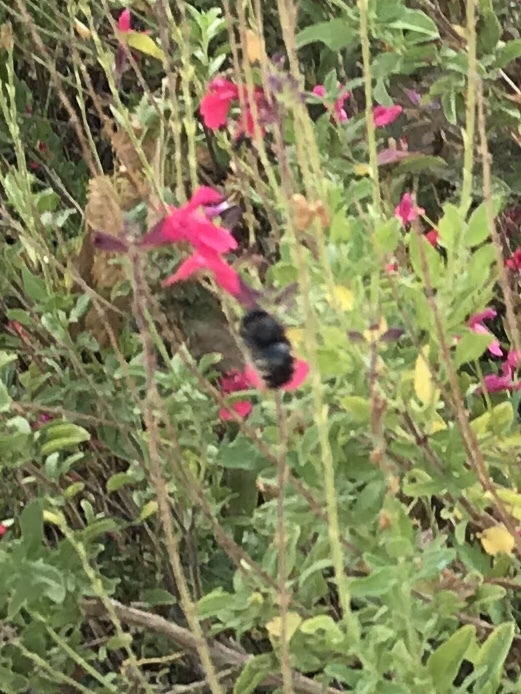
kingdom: Animalia
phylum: Arthropoda
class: Insecta
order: Hymenoptera
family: Apidae
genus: Xylocopa
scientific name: Xylocopa tabaniformis
